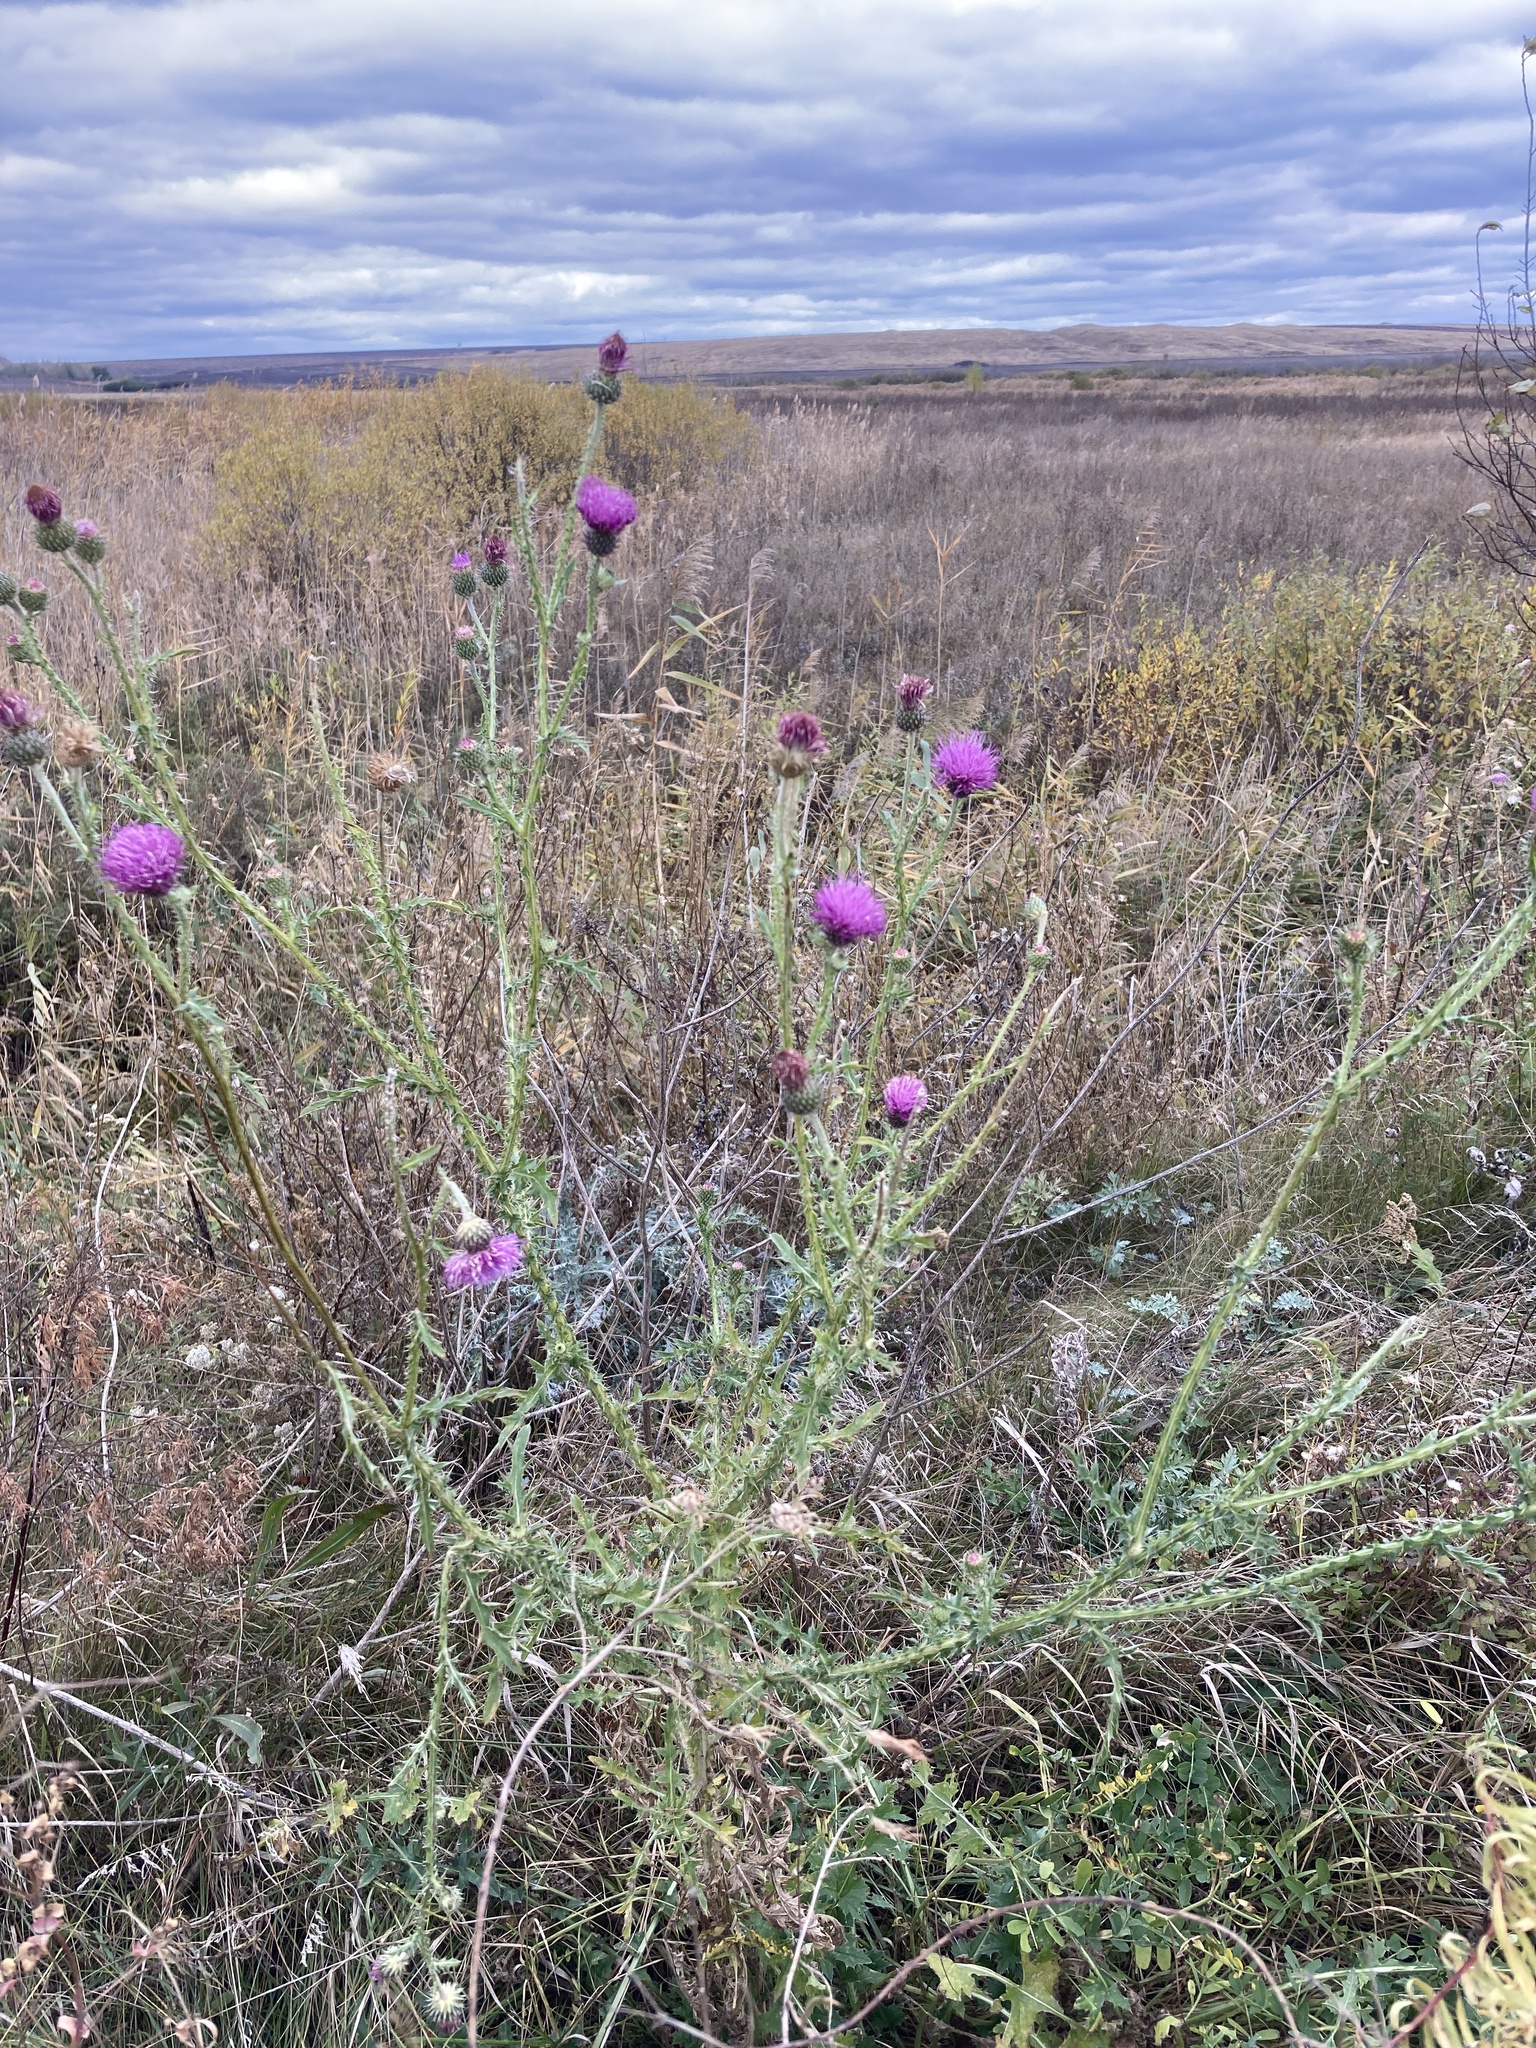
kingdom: Plantae
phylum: Tracheophyta
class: Magnoliopsida
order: Asterales
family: Asteraceae
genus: Carduus
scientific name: Carduus acanthoides
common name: Plumeless thistle
